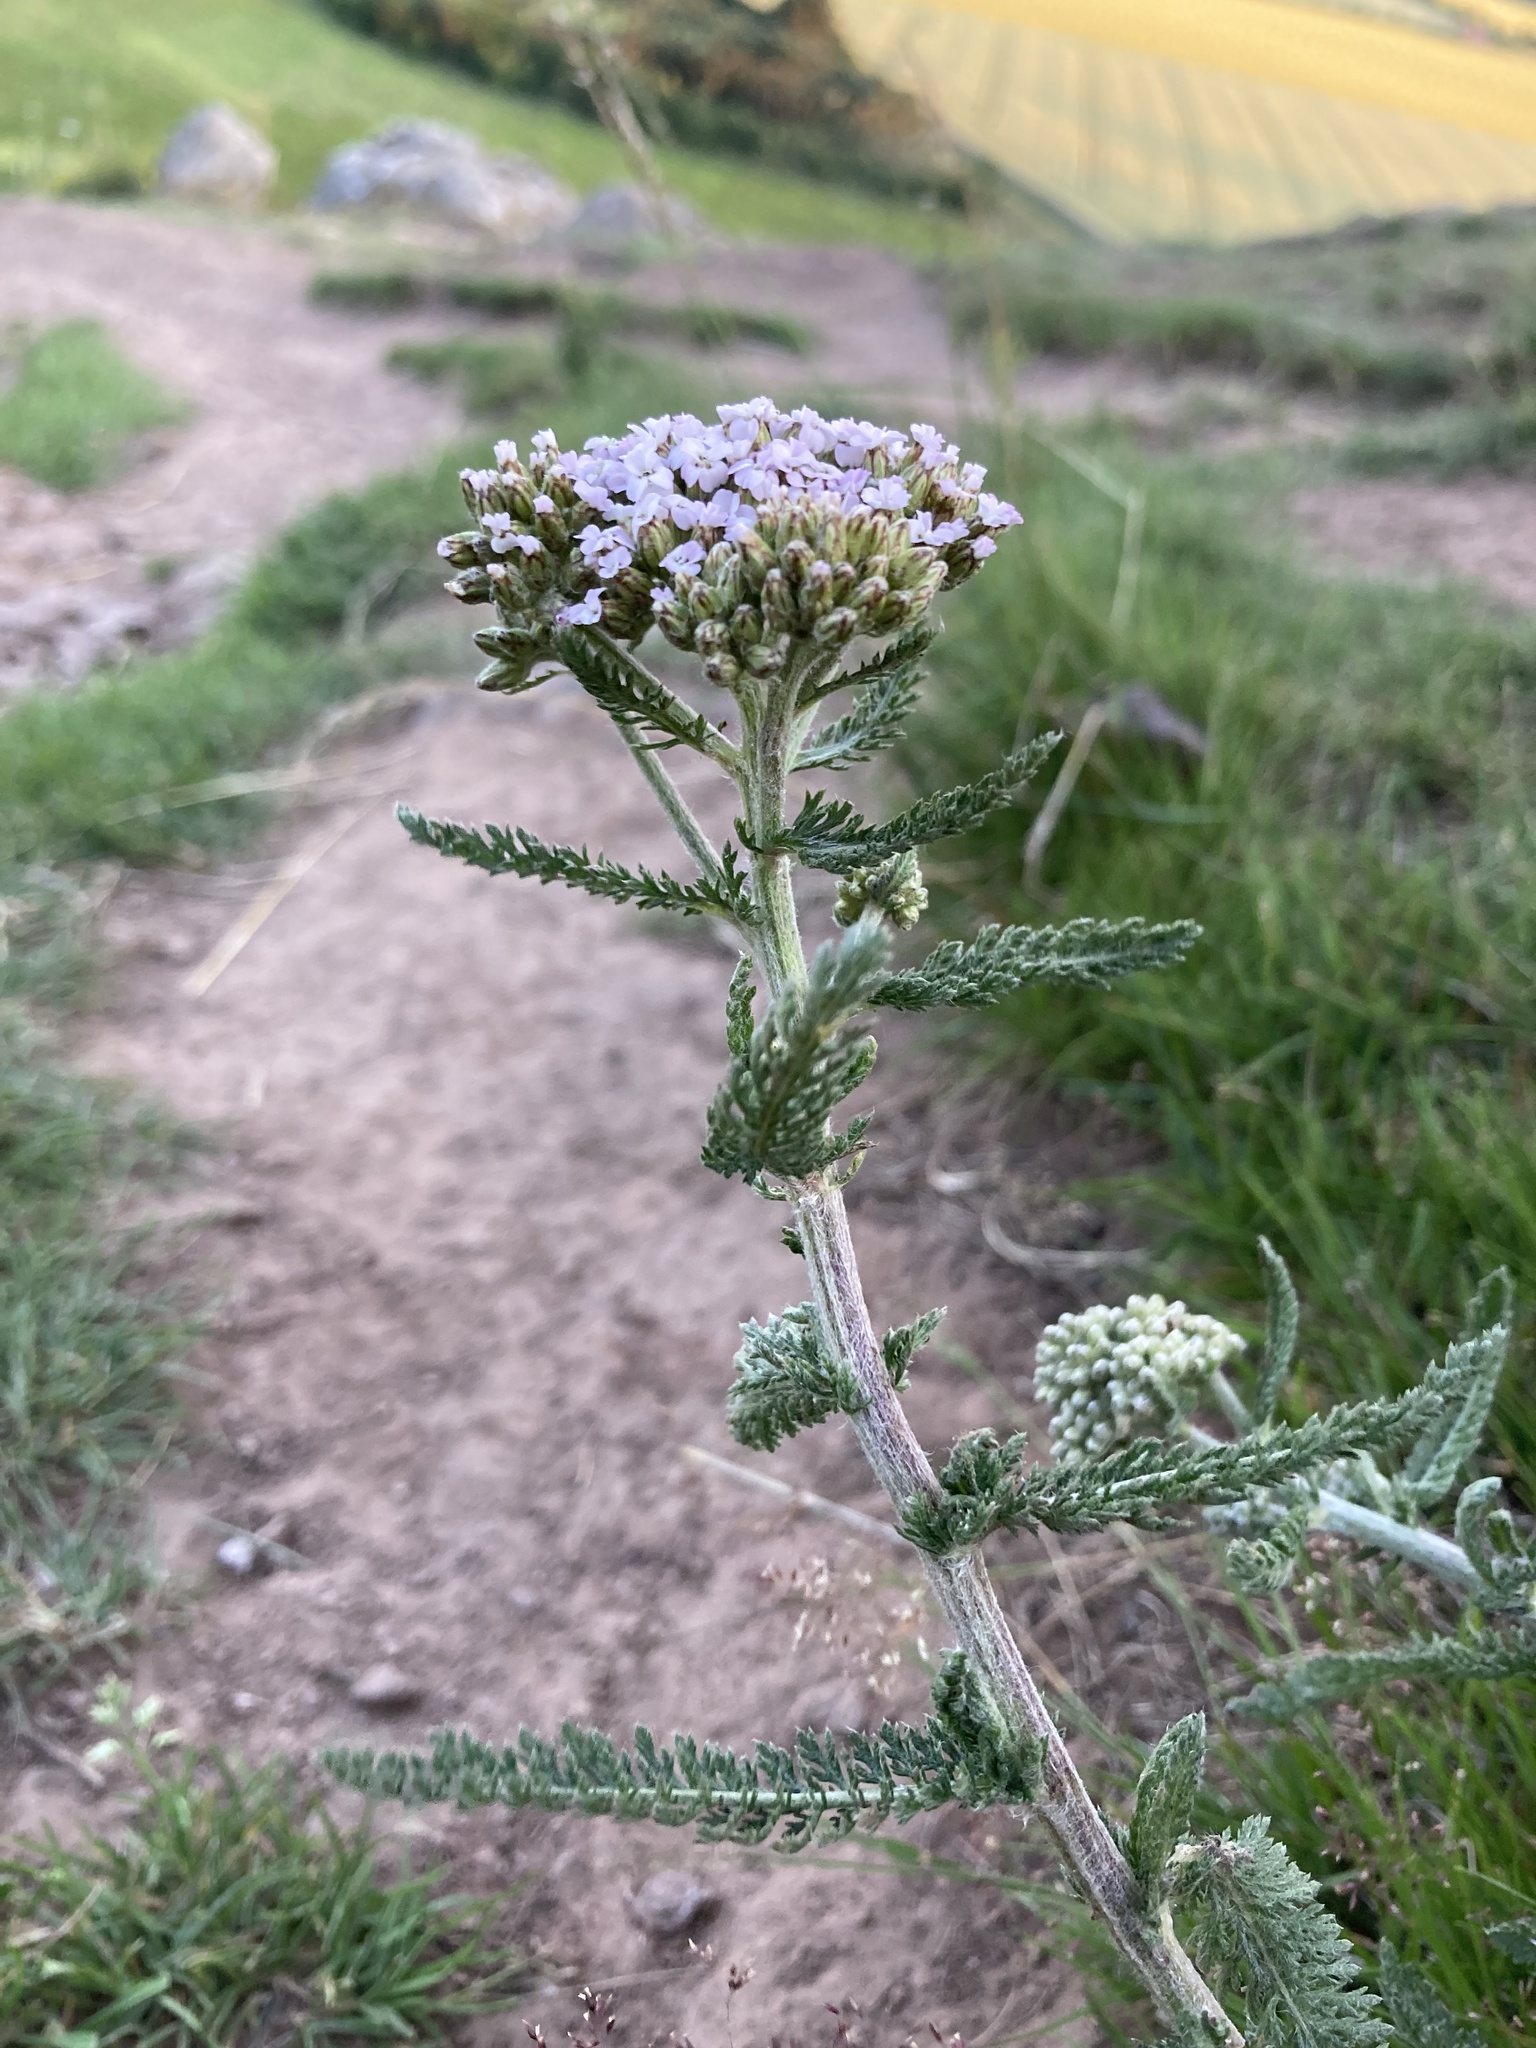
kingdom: Plantae
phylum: Tracheophyta
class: Magnoliopsida
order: Asterales
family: Asteraceae
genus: Achillea
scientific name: Achillea millefolium
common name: Yarrow
